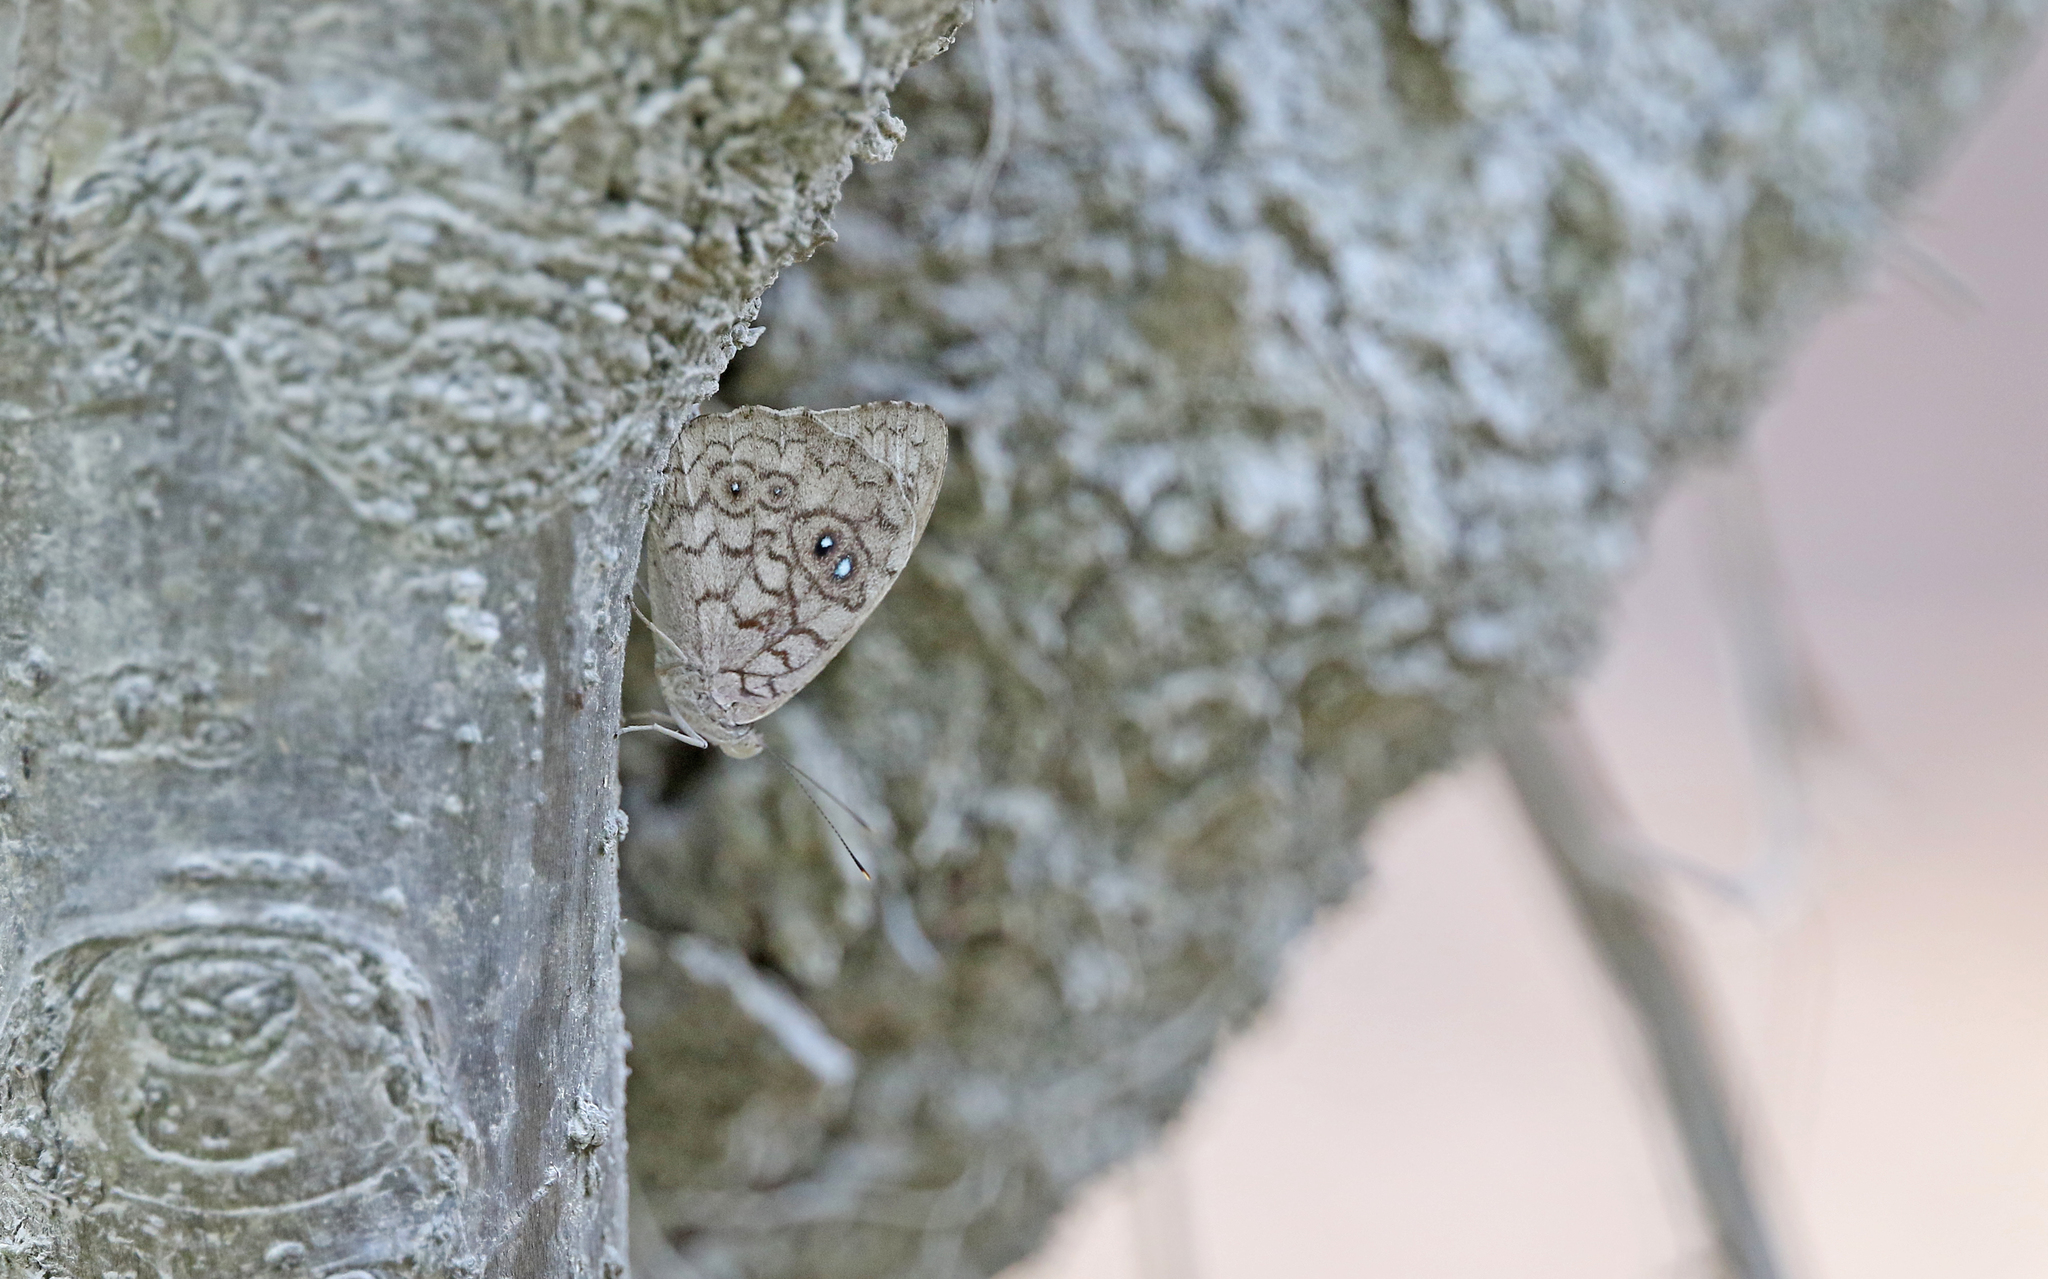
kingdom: Animalia
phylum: Arthropoda
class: Insecta
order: Lepidoptera
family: Nymphalidae
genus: Eunica
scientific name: Eunica clythia
